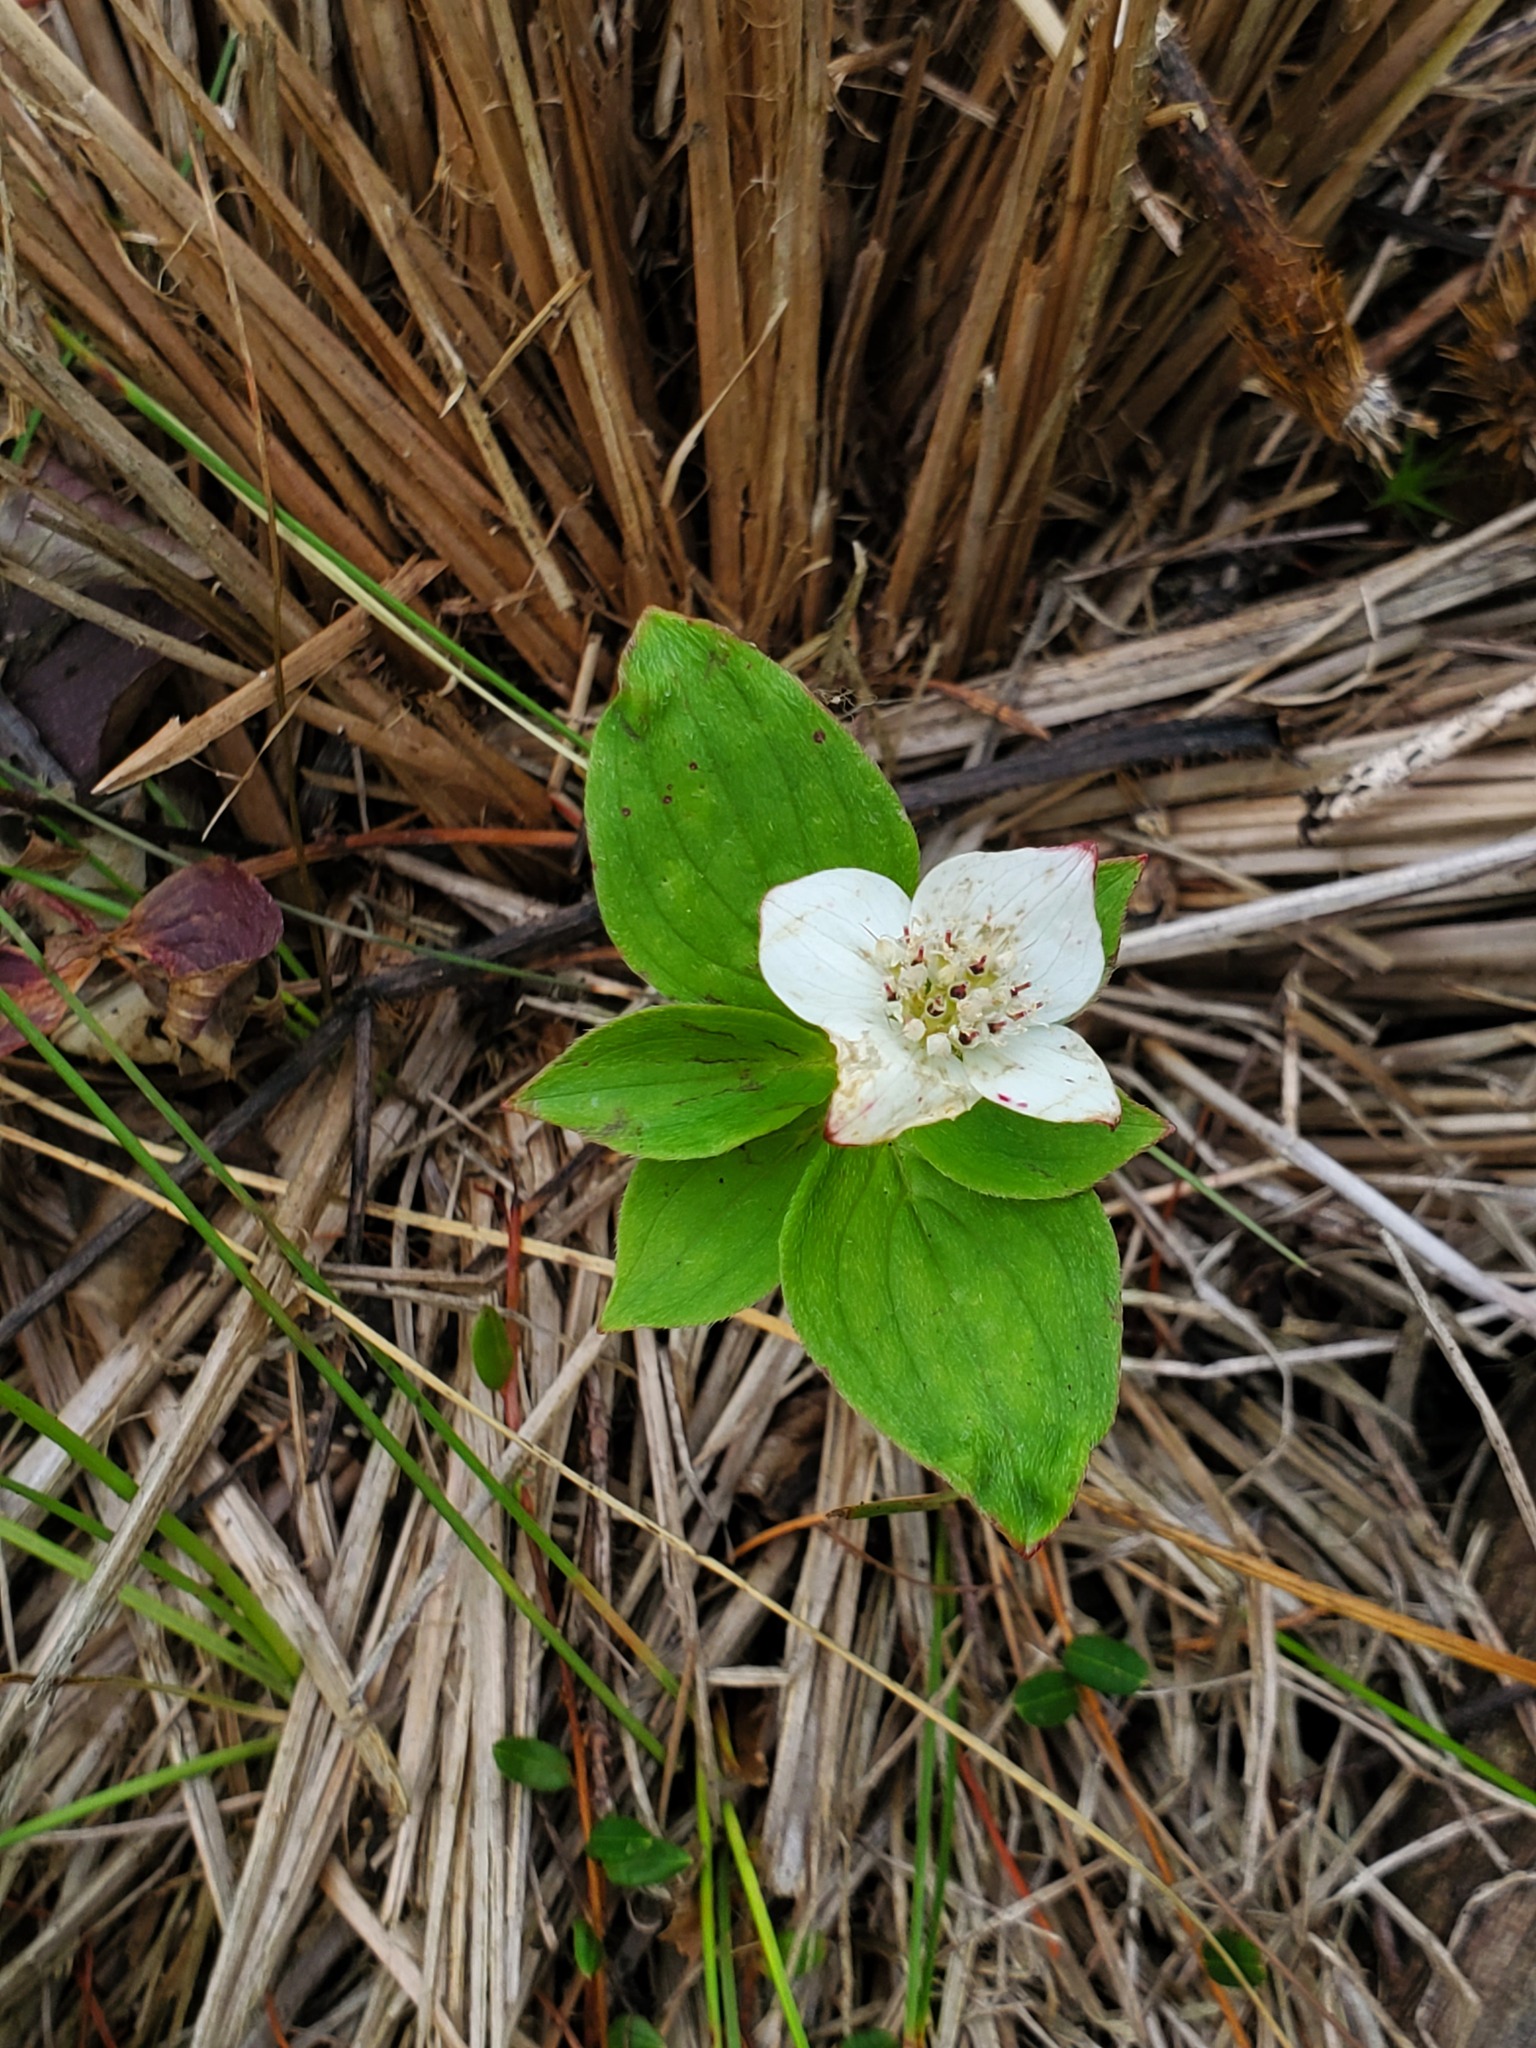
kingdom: Plantae
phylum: Tracheophyta
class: Magnoliopsida
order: Cornales
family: Cornaceae
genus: Cornus
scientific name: Cornus canadensis
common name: Creeping dogwood
